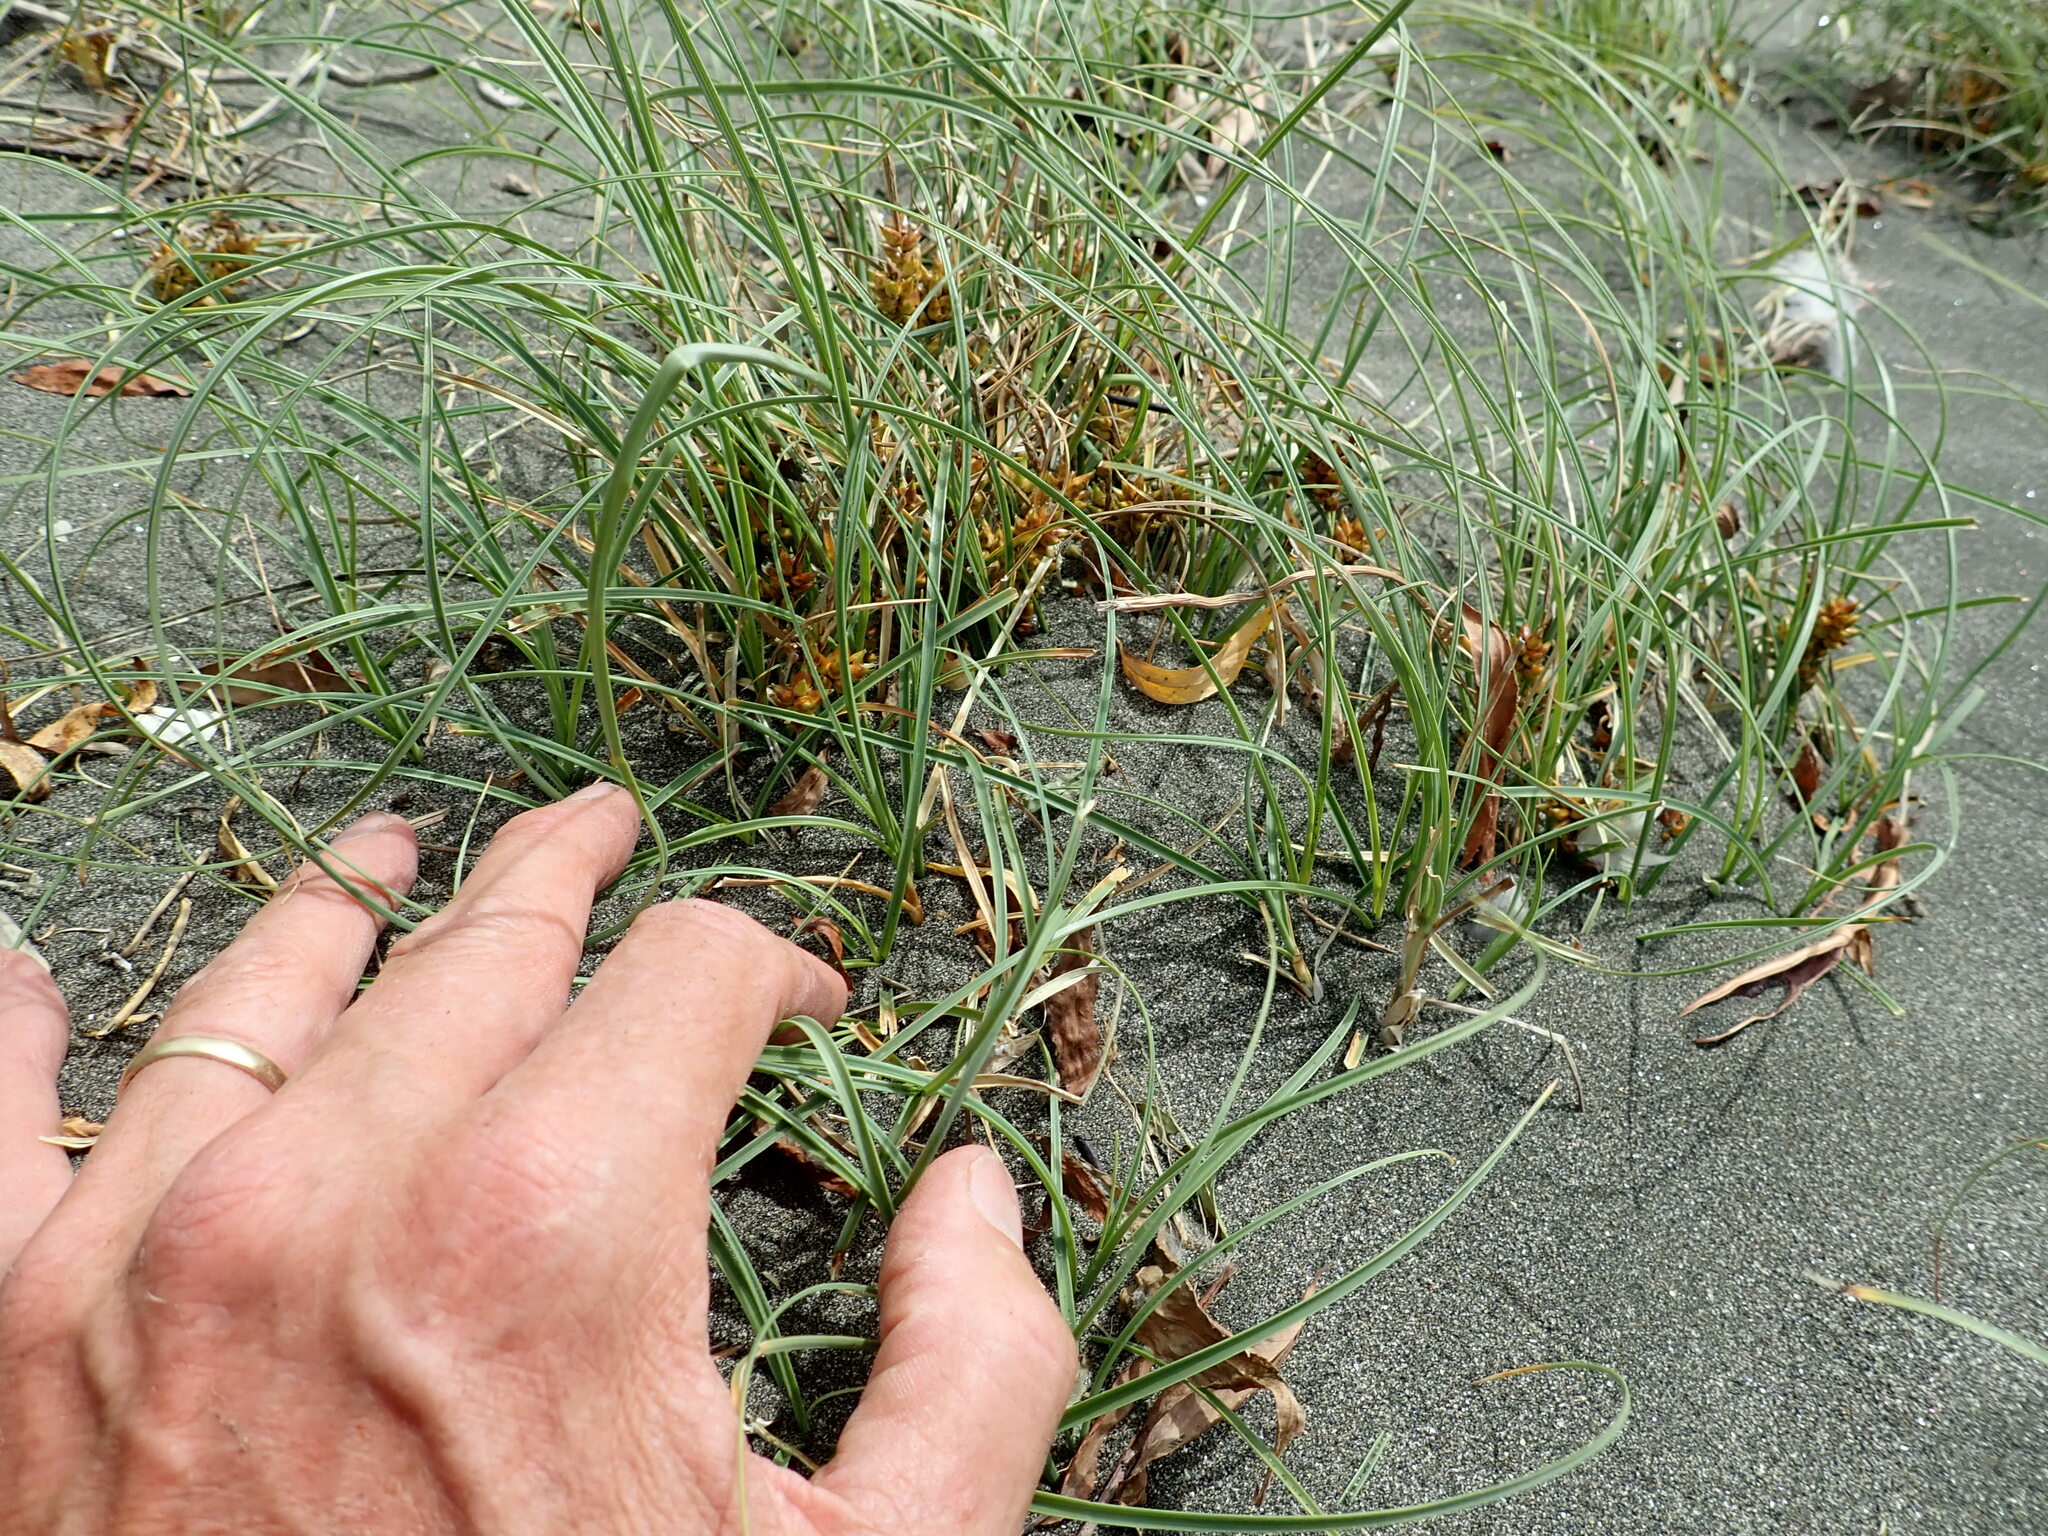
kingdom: Plantae
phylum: Tracheophyta
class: Liliopsida
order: Poales
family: Cyperaceae
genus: Carex
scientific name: Carex pumila
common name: Dwarf sedge
